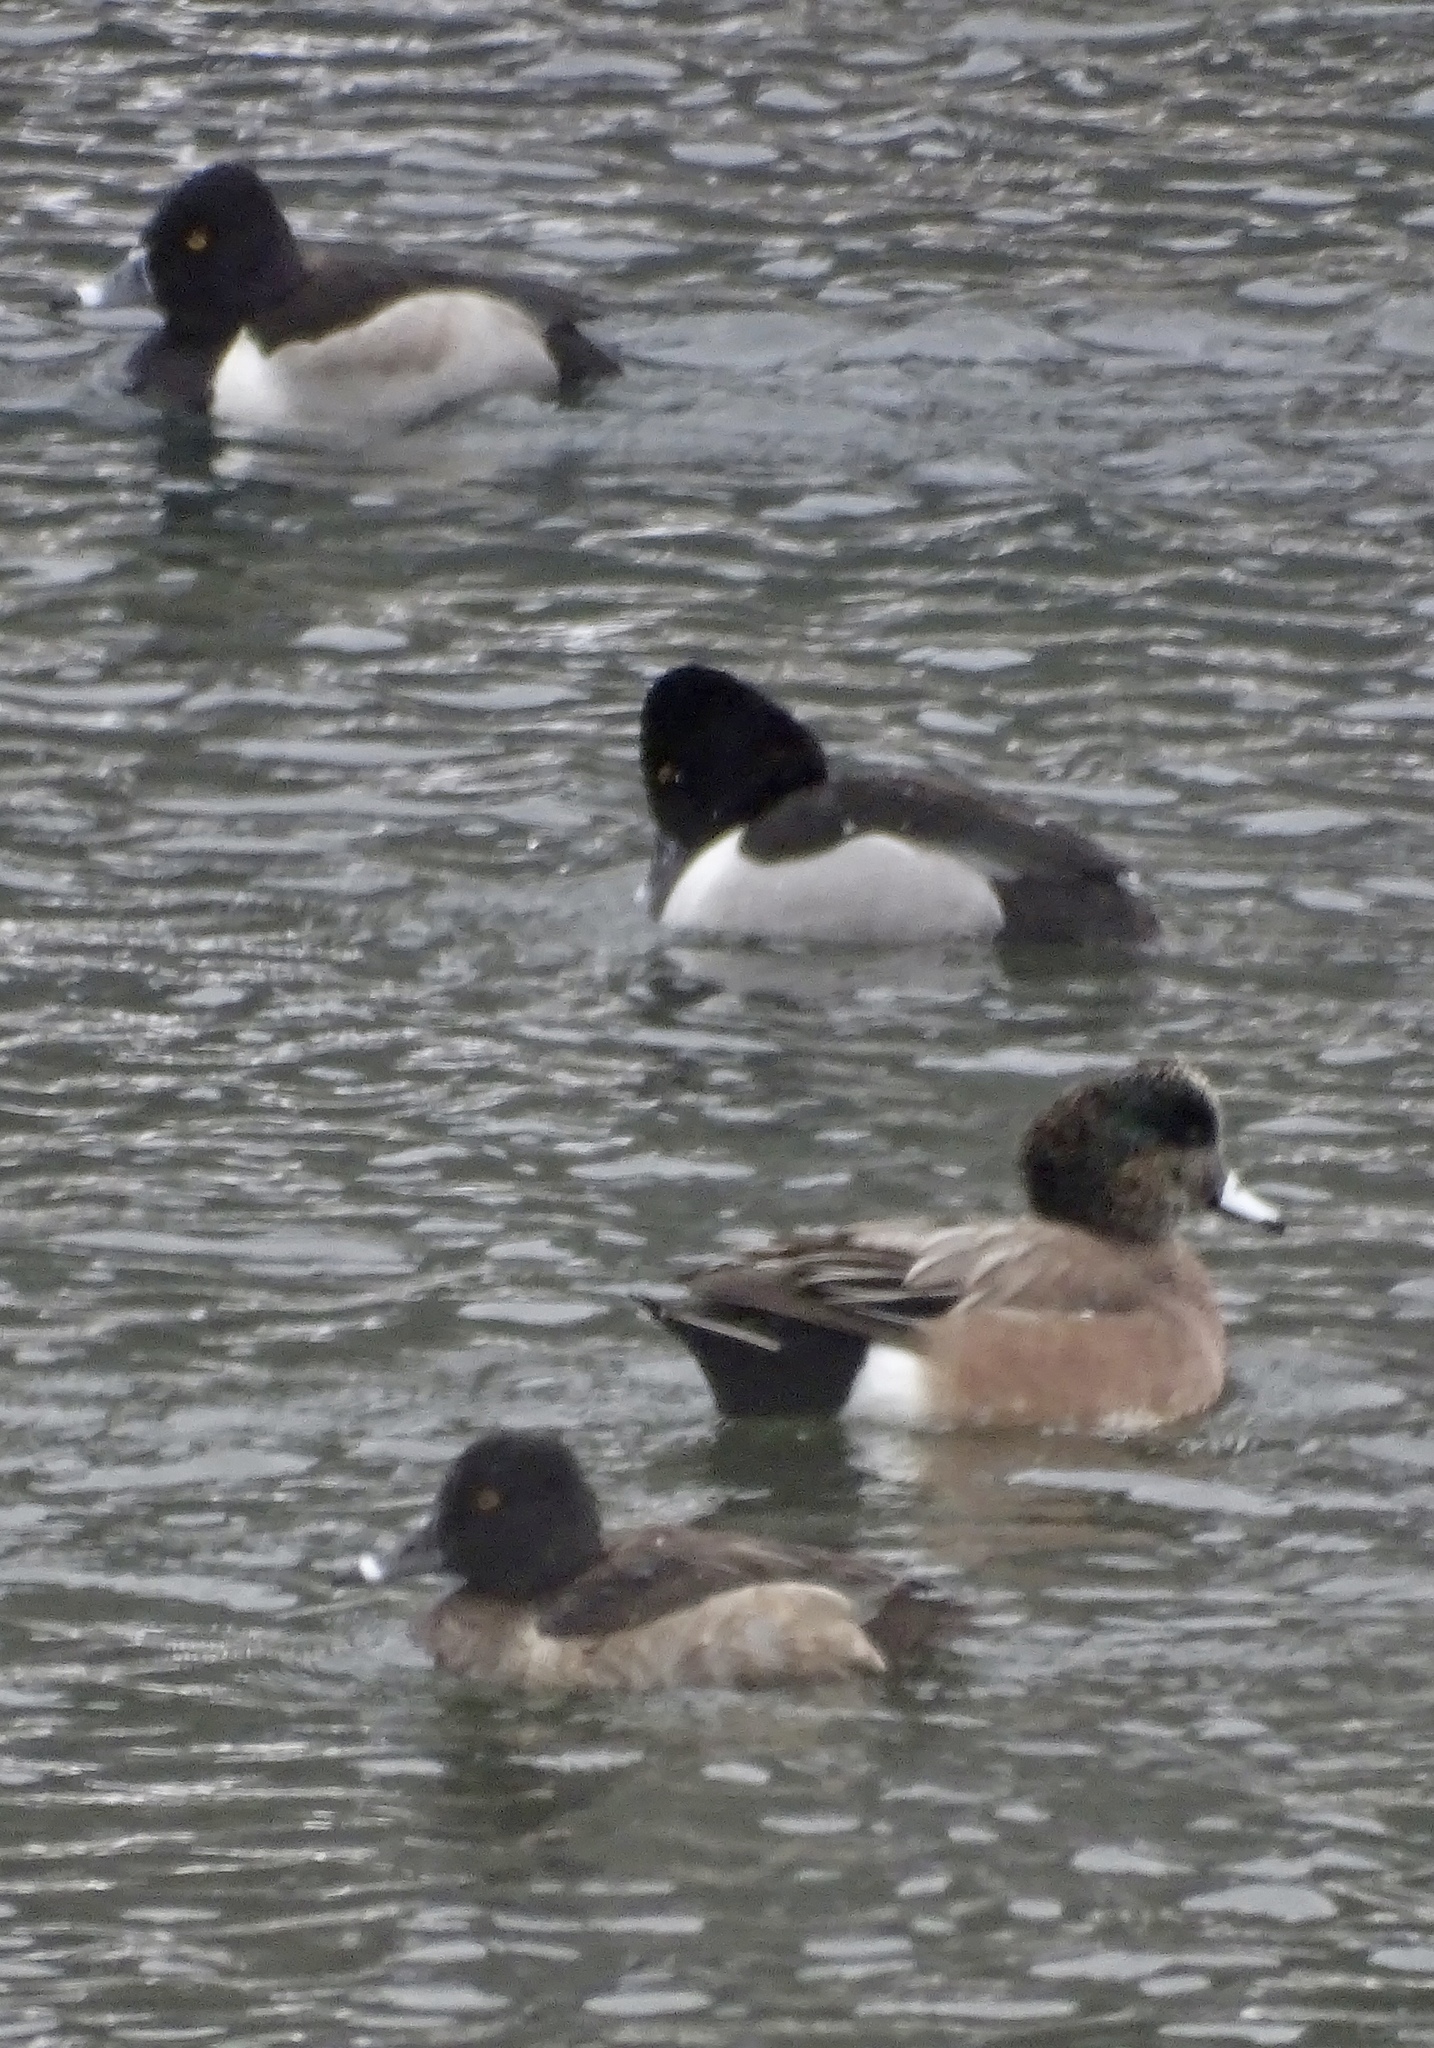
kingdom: Animalia
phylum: Chordata
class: Aves
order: Anseriformes
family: Anatidae
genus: Aythya
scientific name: Aythya collaris
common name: Ring-necked duck
